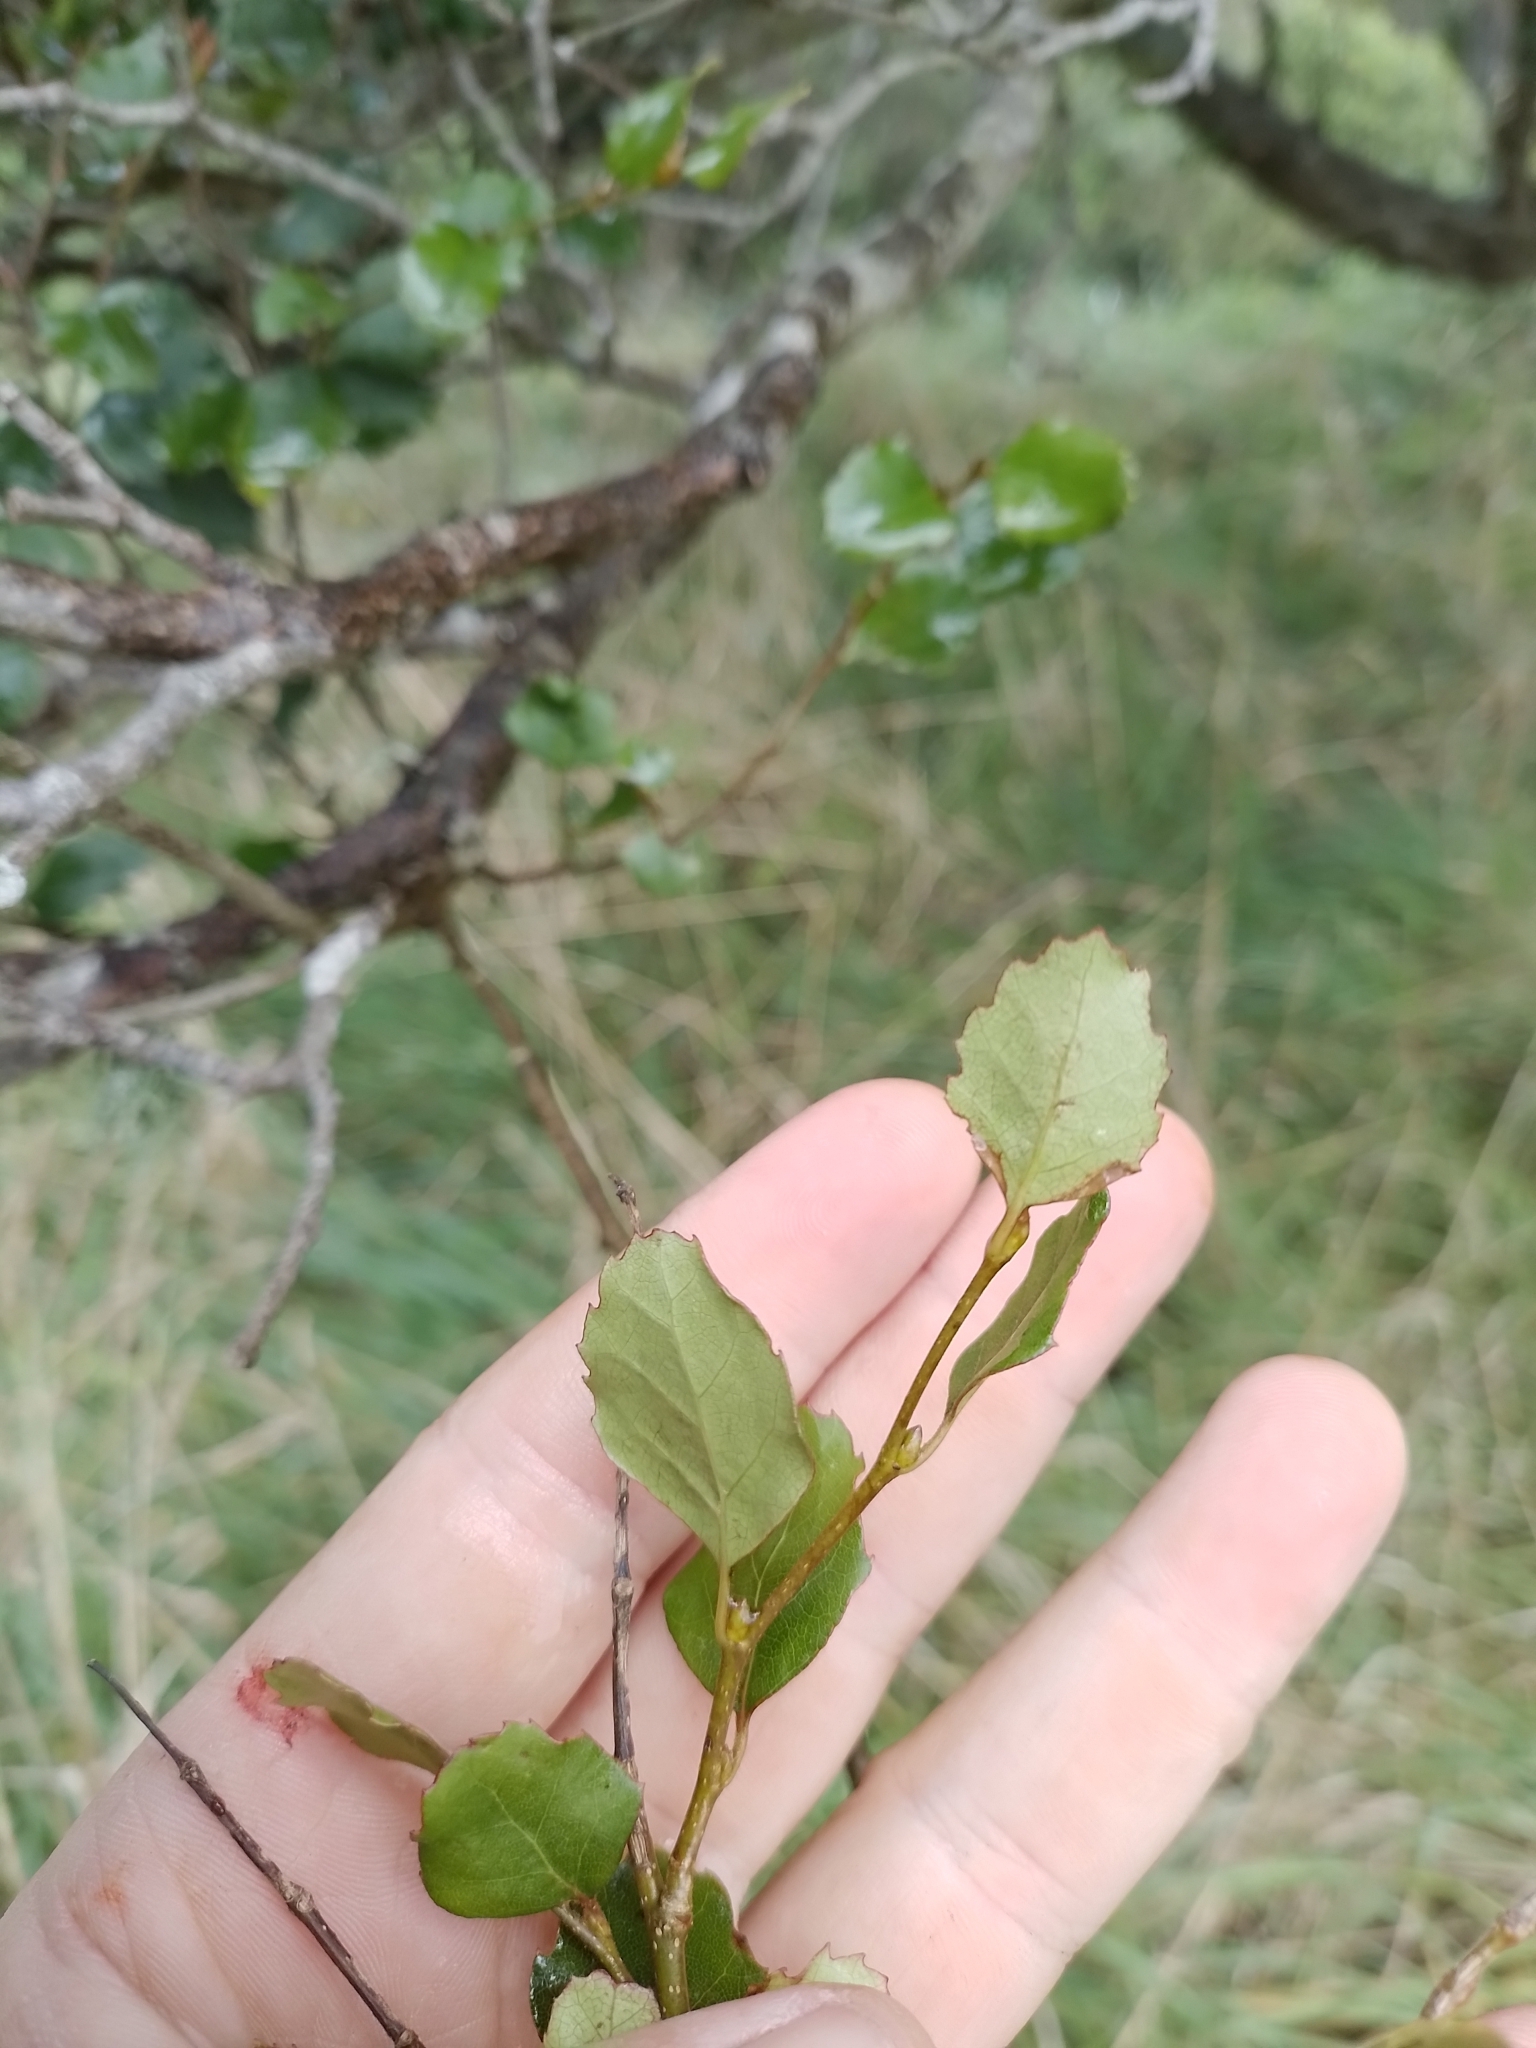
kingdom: Plantae
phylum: Tracheophyta
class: Magnoliopsida
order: Fagales
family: Nothofagaceae
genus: Nothofagus
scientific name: Nothofagus fusca
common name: Red beech
